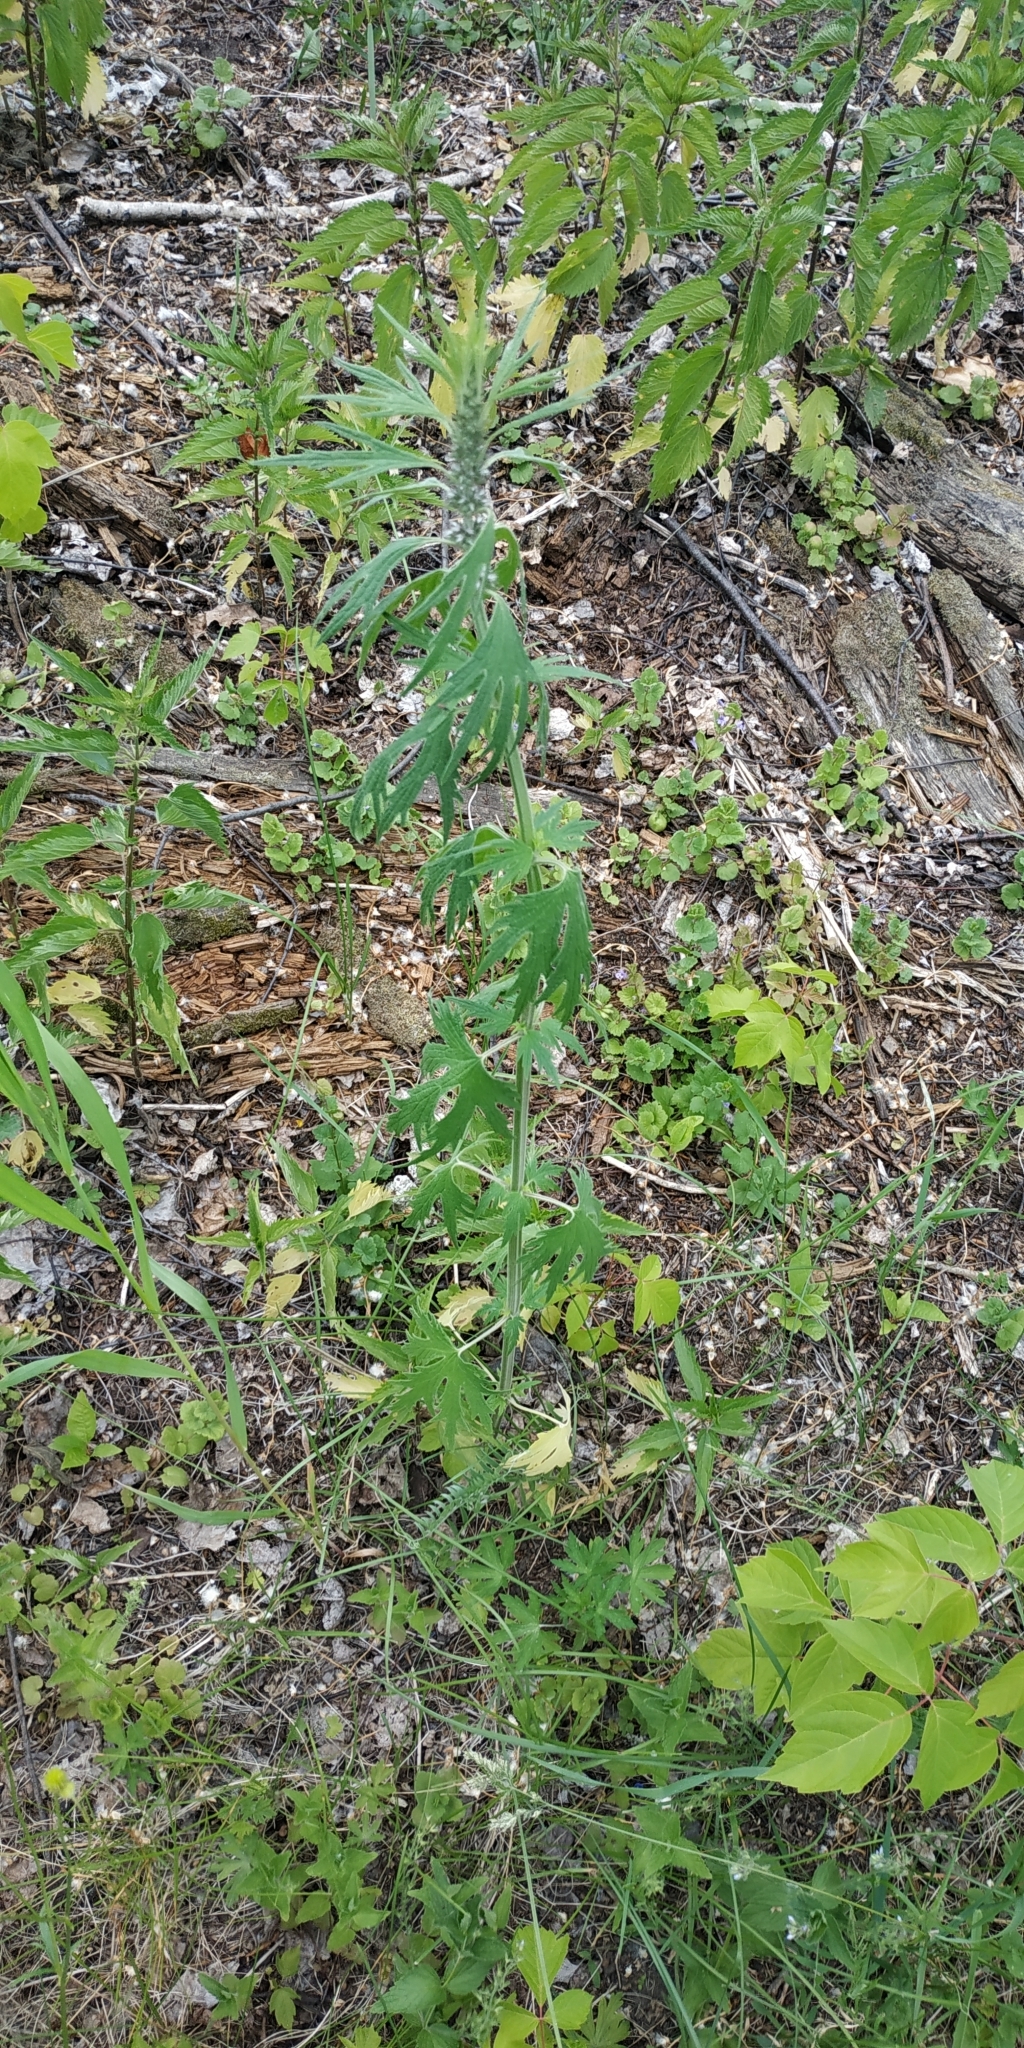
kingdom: Plantae
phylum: Tracheophyta
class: Magnoliopsida
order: Lamiales
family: Lamiaceae
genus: Leonurus
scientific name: Leonurus quinquelobatus
